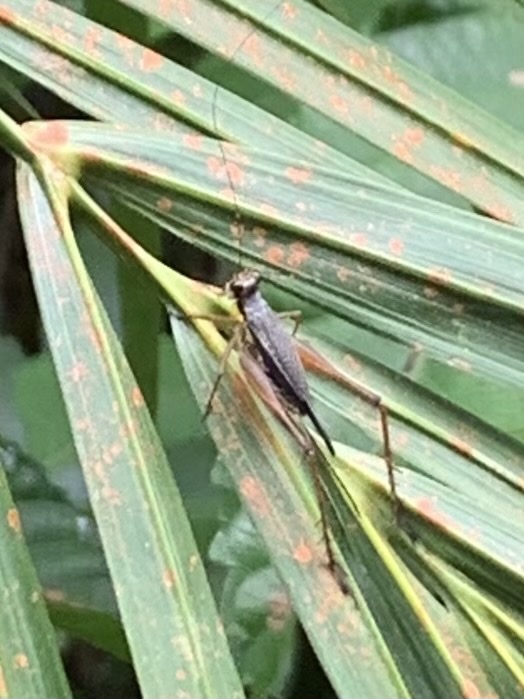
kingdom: Animalia
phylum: Arthropoda
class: Insecta
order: Orthoptera
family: Gryllidae
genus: Nisitrus
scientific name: Nisitrus malaya
